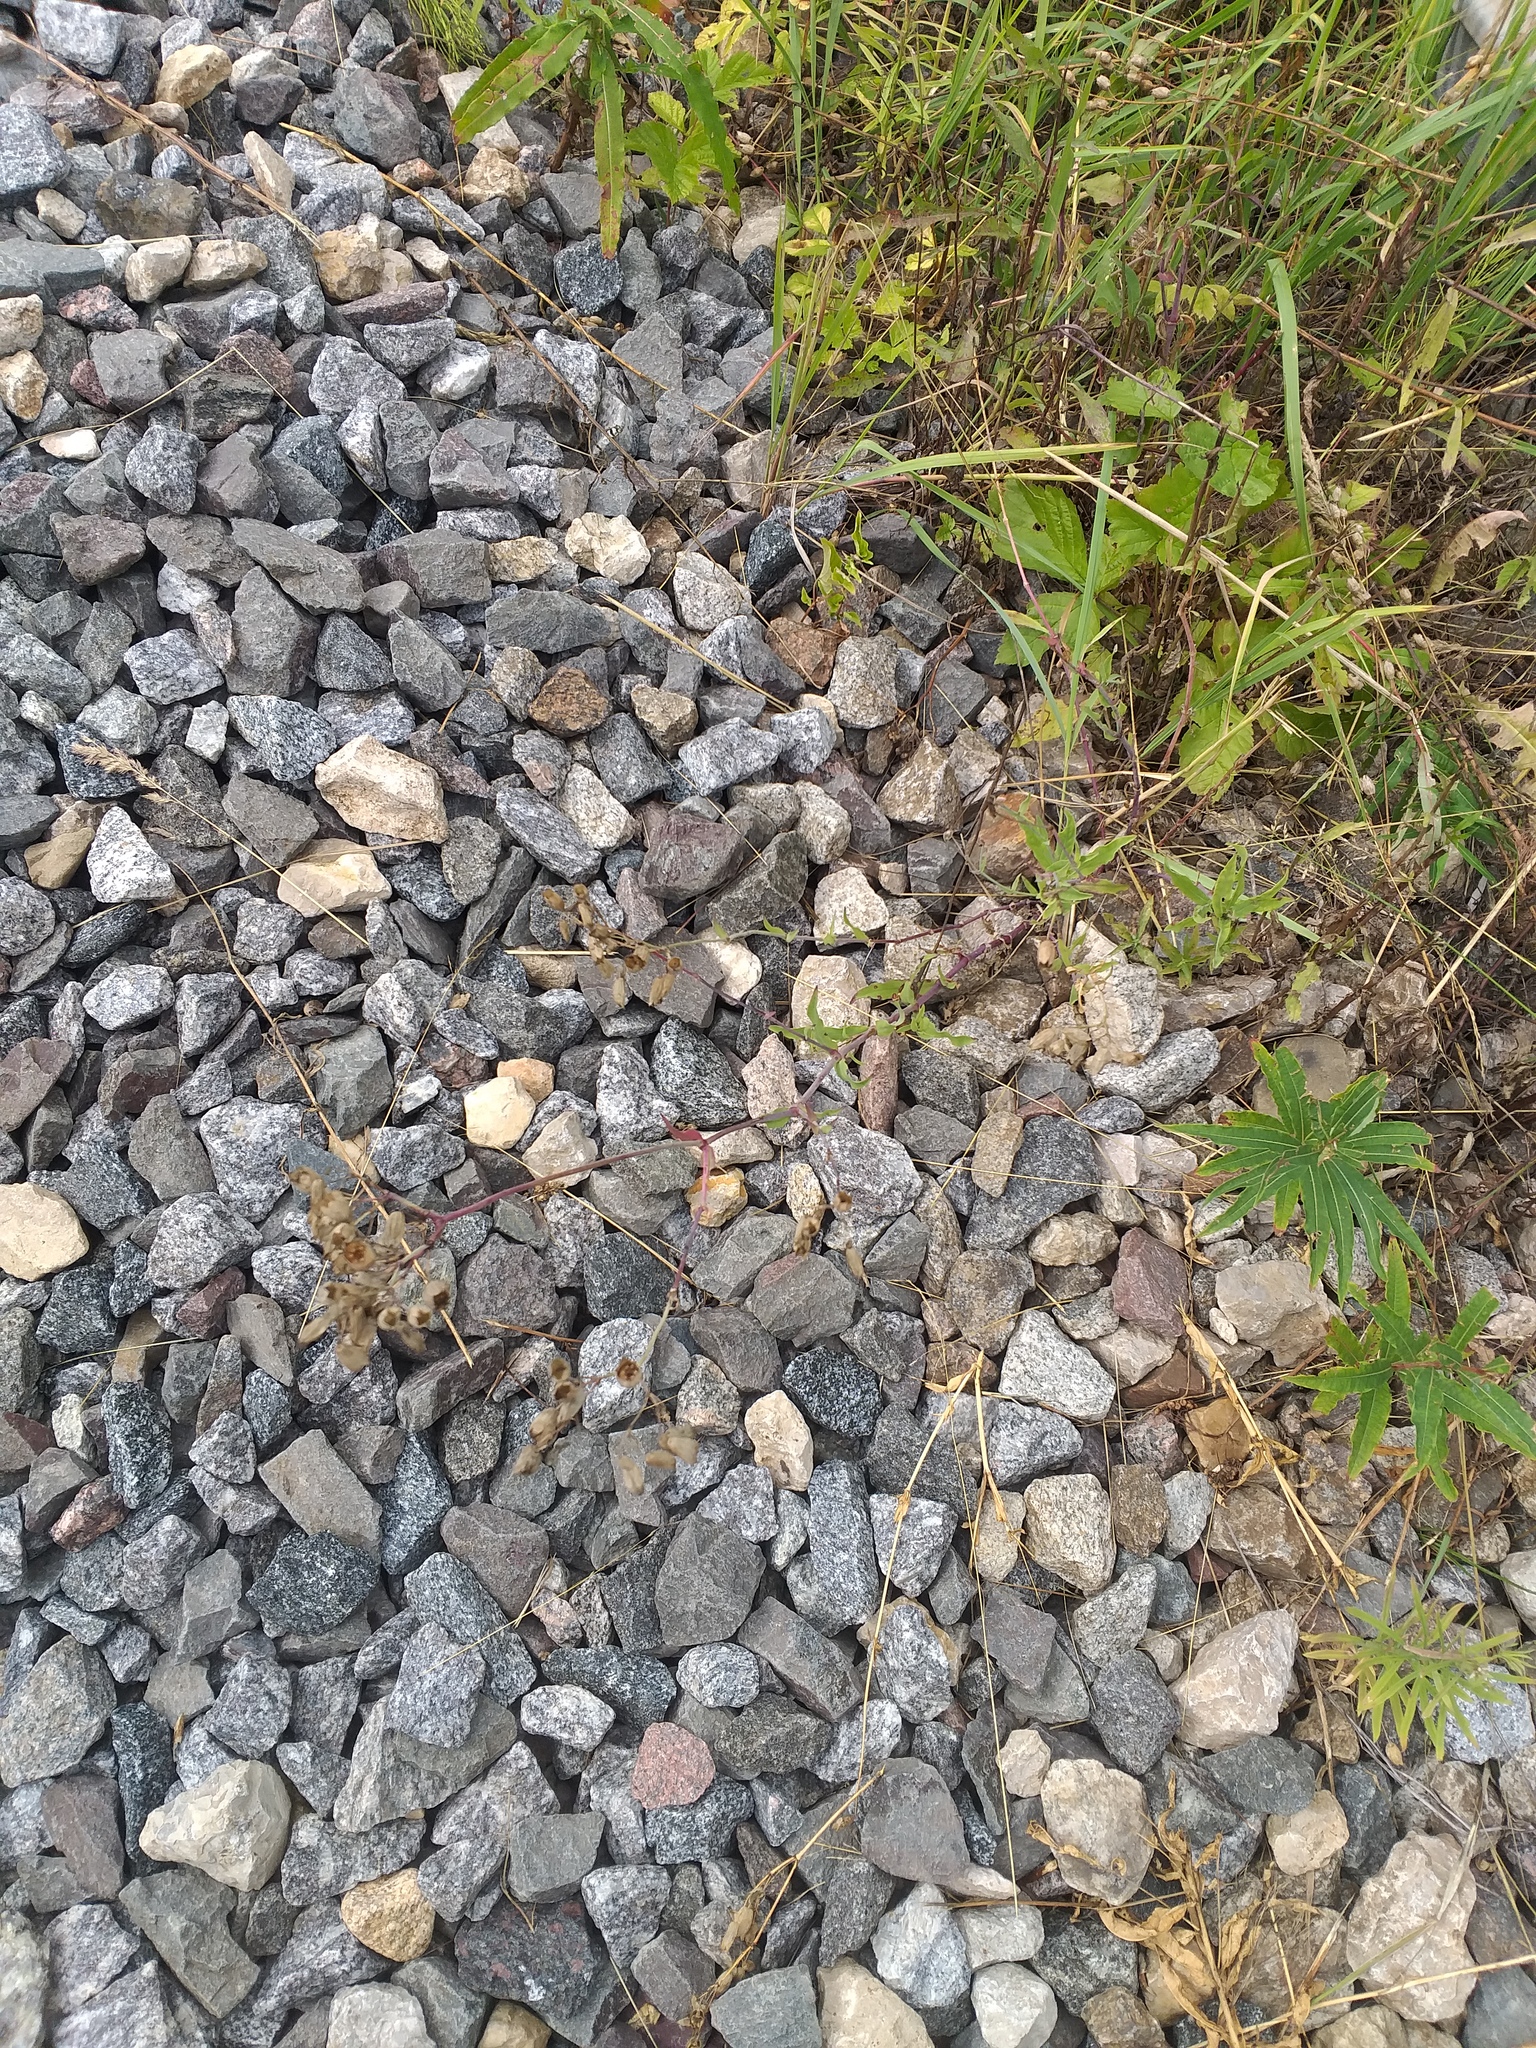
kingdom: Plantae
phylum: Tracheophyta
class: Magnoliopsida
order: Caryophyllales
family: Caryophyllaceae
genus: Silene
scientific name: Silene vulgaris
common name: Bladder campion
